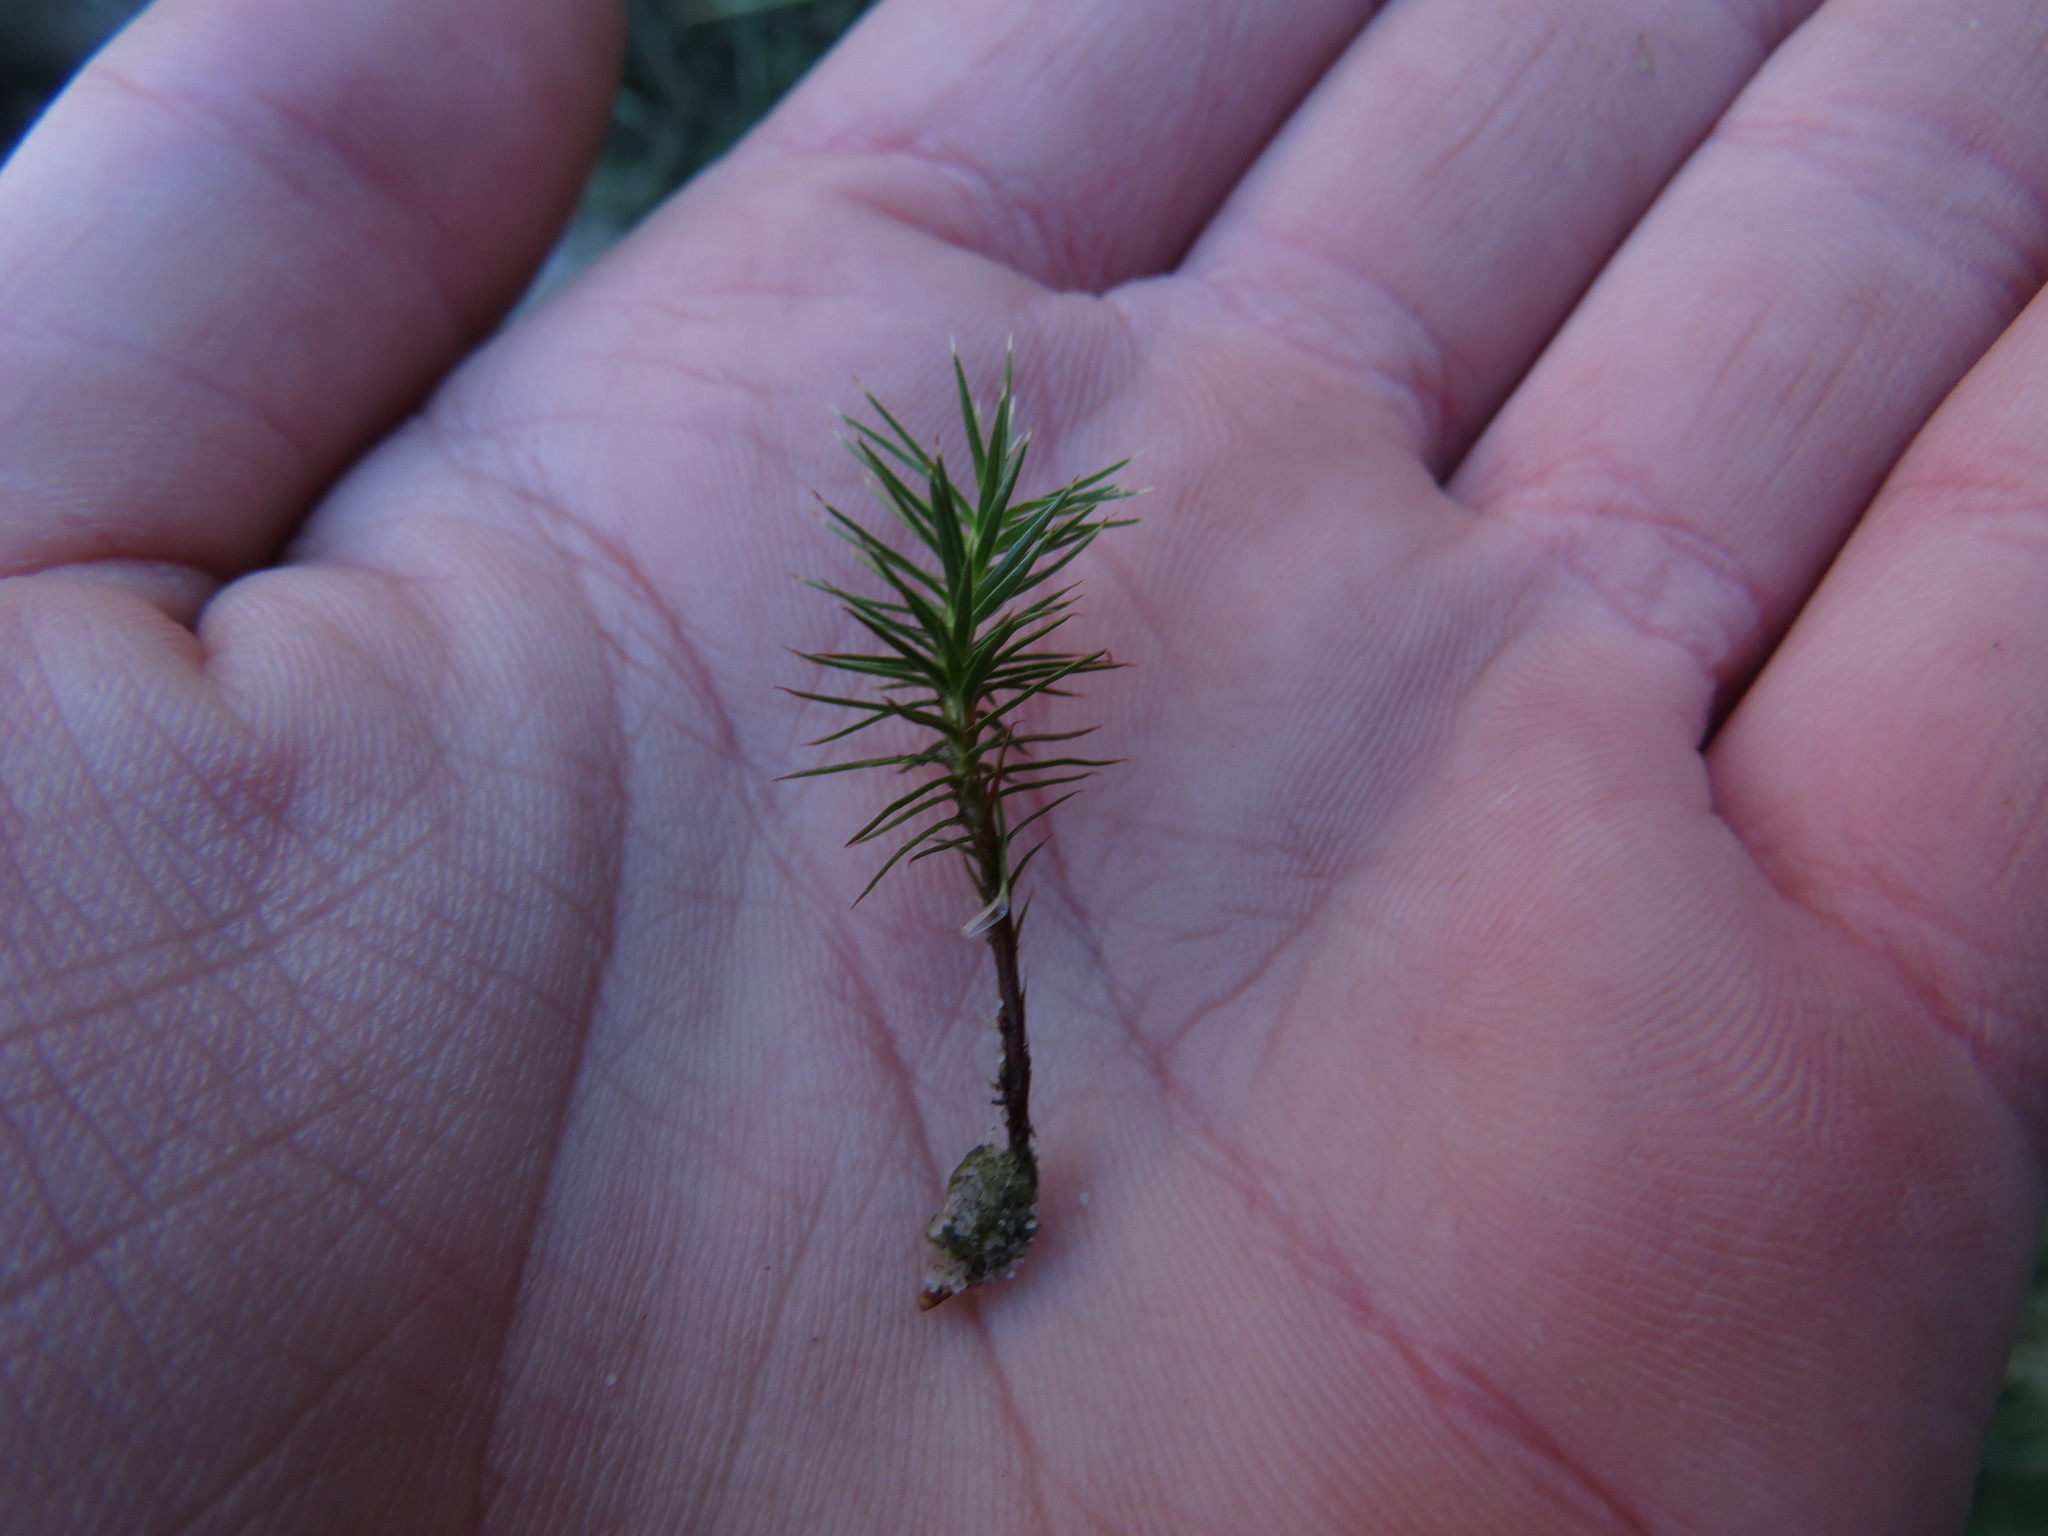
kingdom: Plantae
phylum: Bryophyta
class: Polytrichopsida
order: Polytrichales
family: Polytrichaceae
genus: Polytrichum
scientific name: Polytrichum piliferum
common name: Bristly haircap
